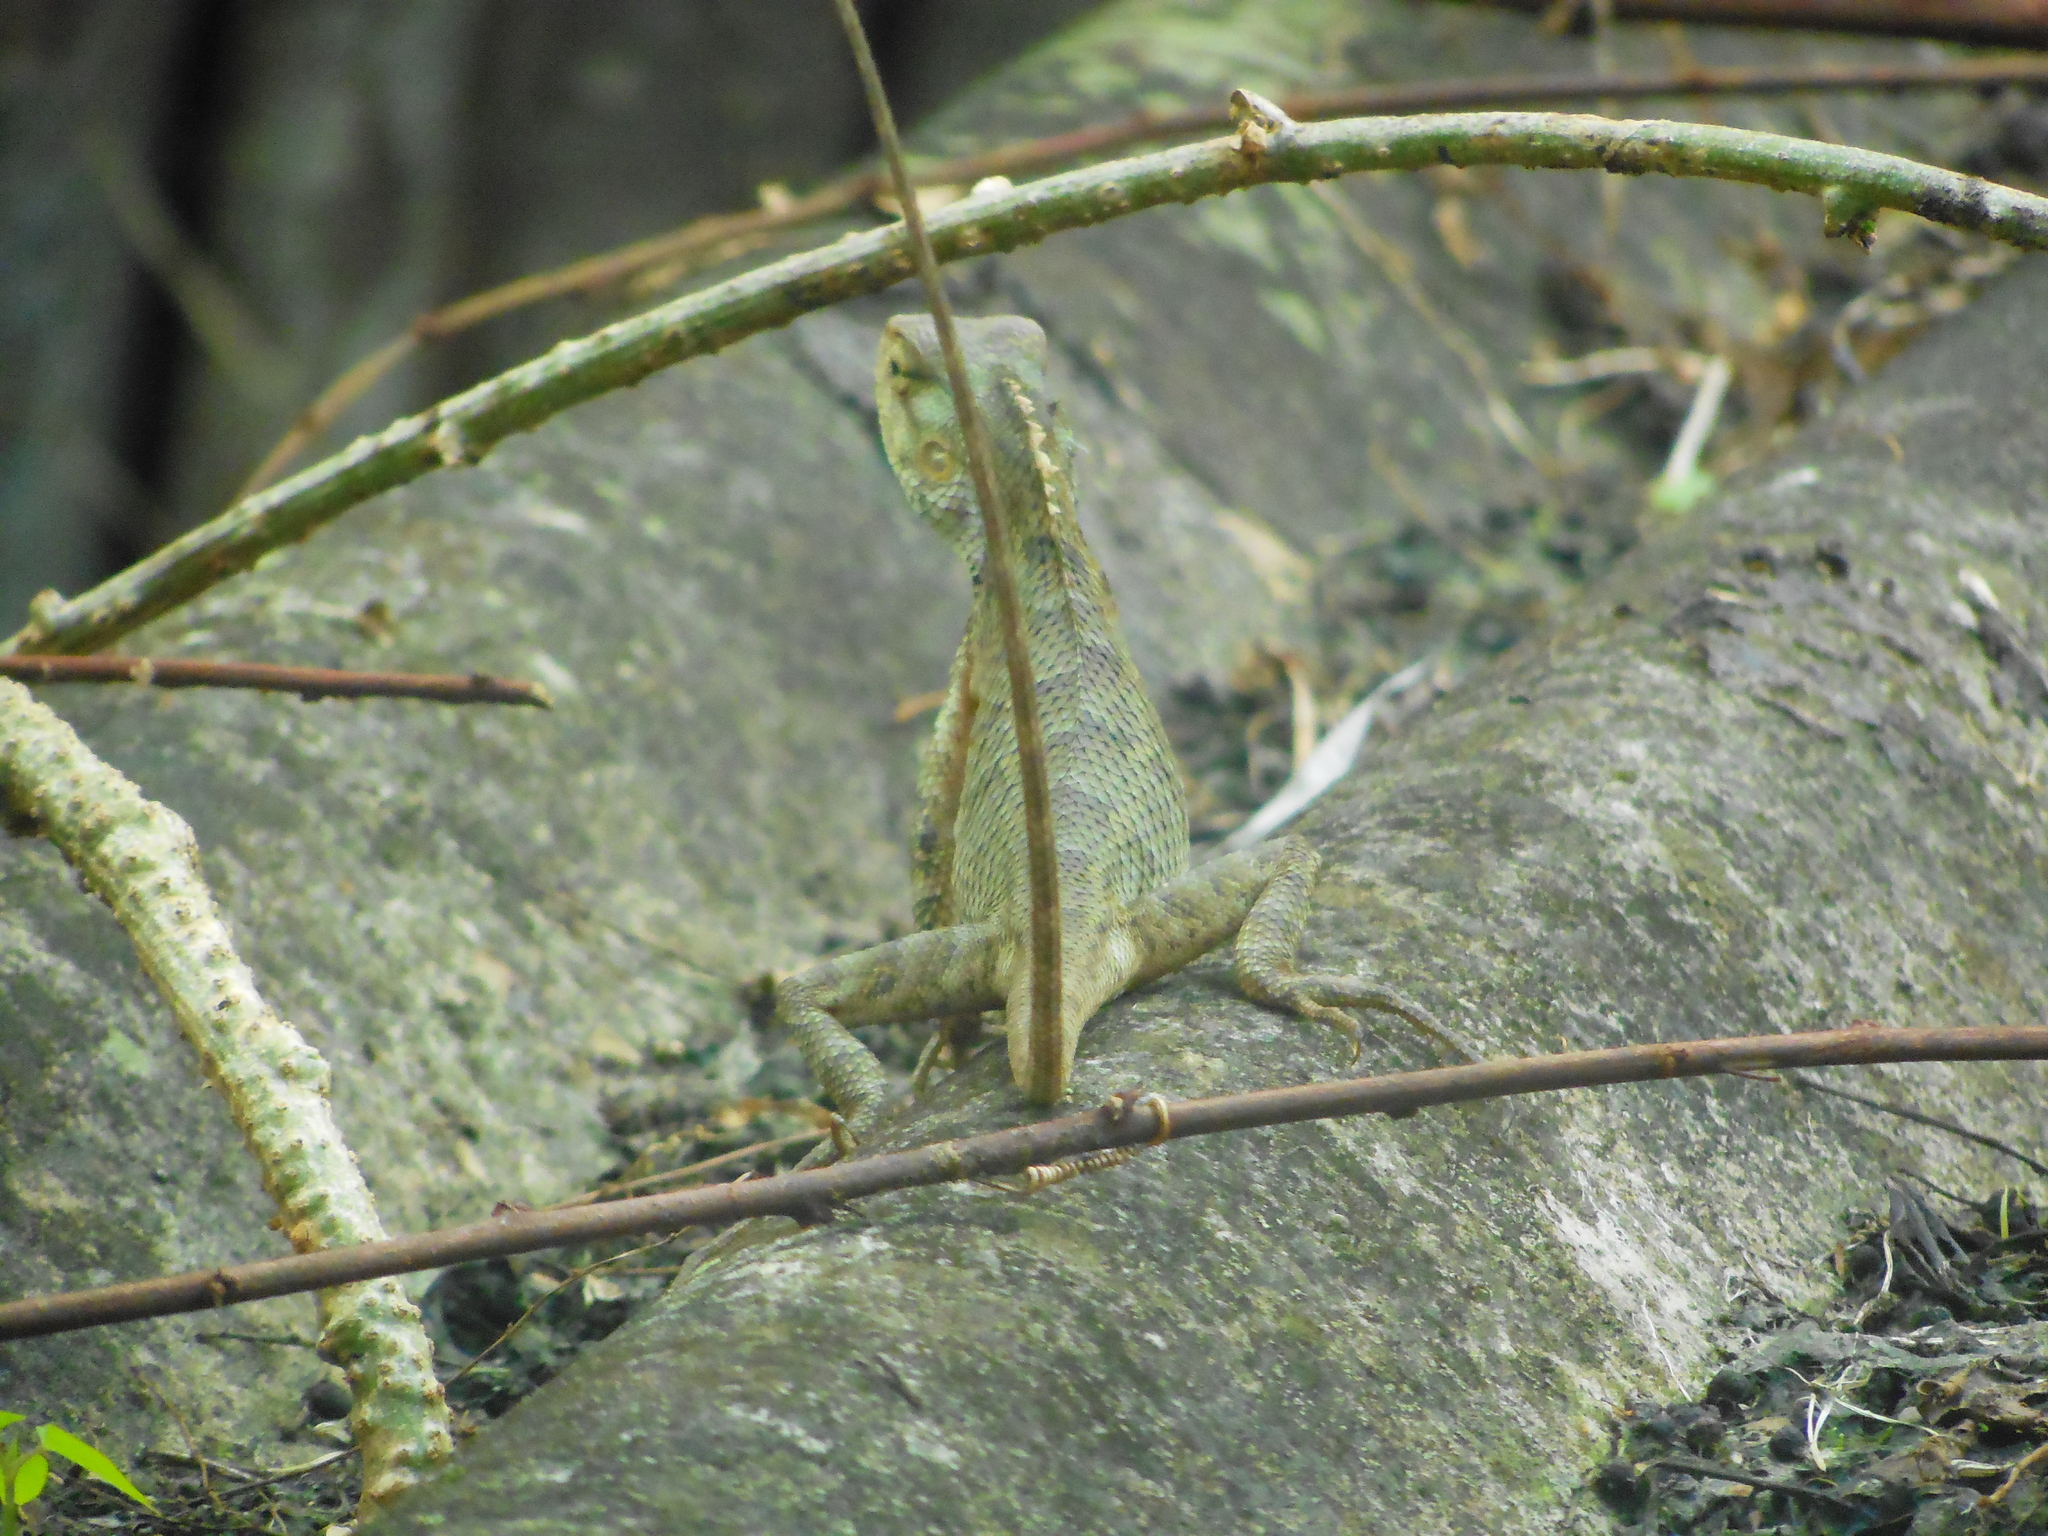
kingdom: Animalia
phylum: Chordata
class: Squamata
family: Agamidae
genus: Calotes
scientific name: Calotes versicolor
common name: Oriental garden lizard
